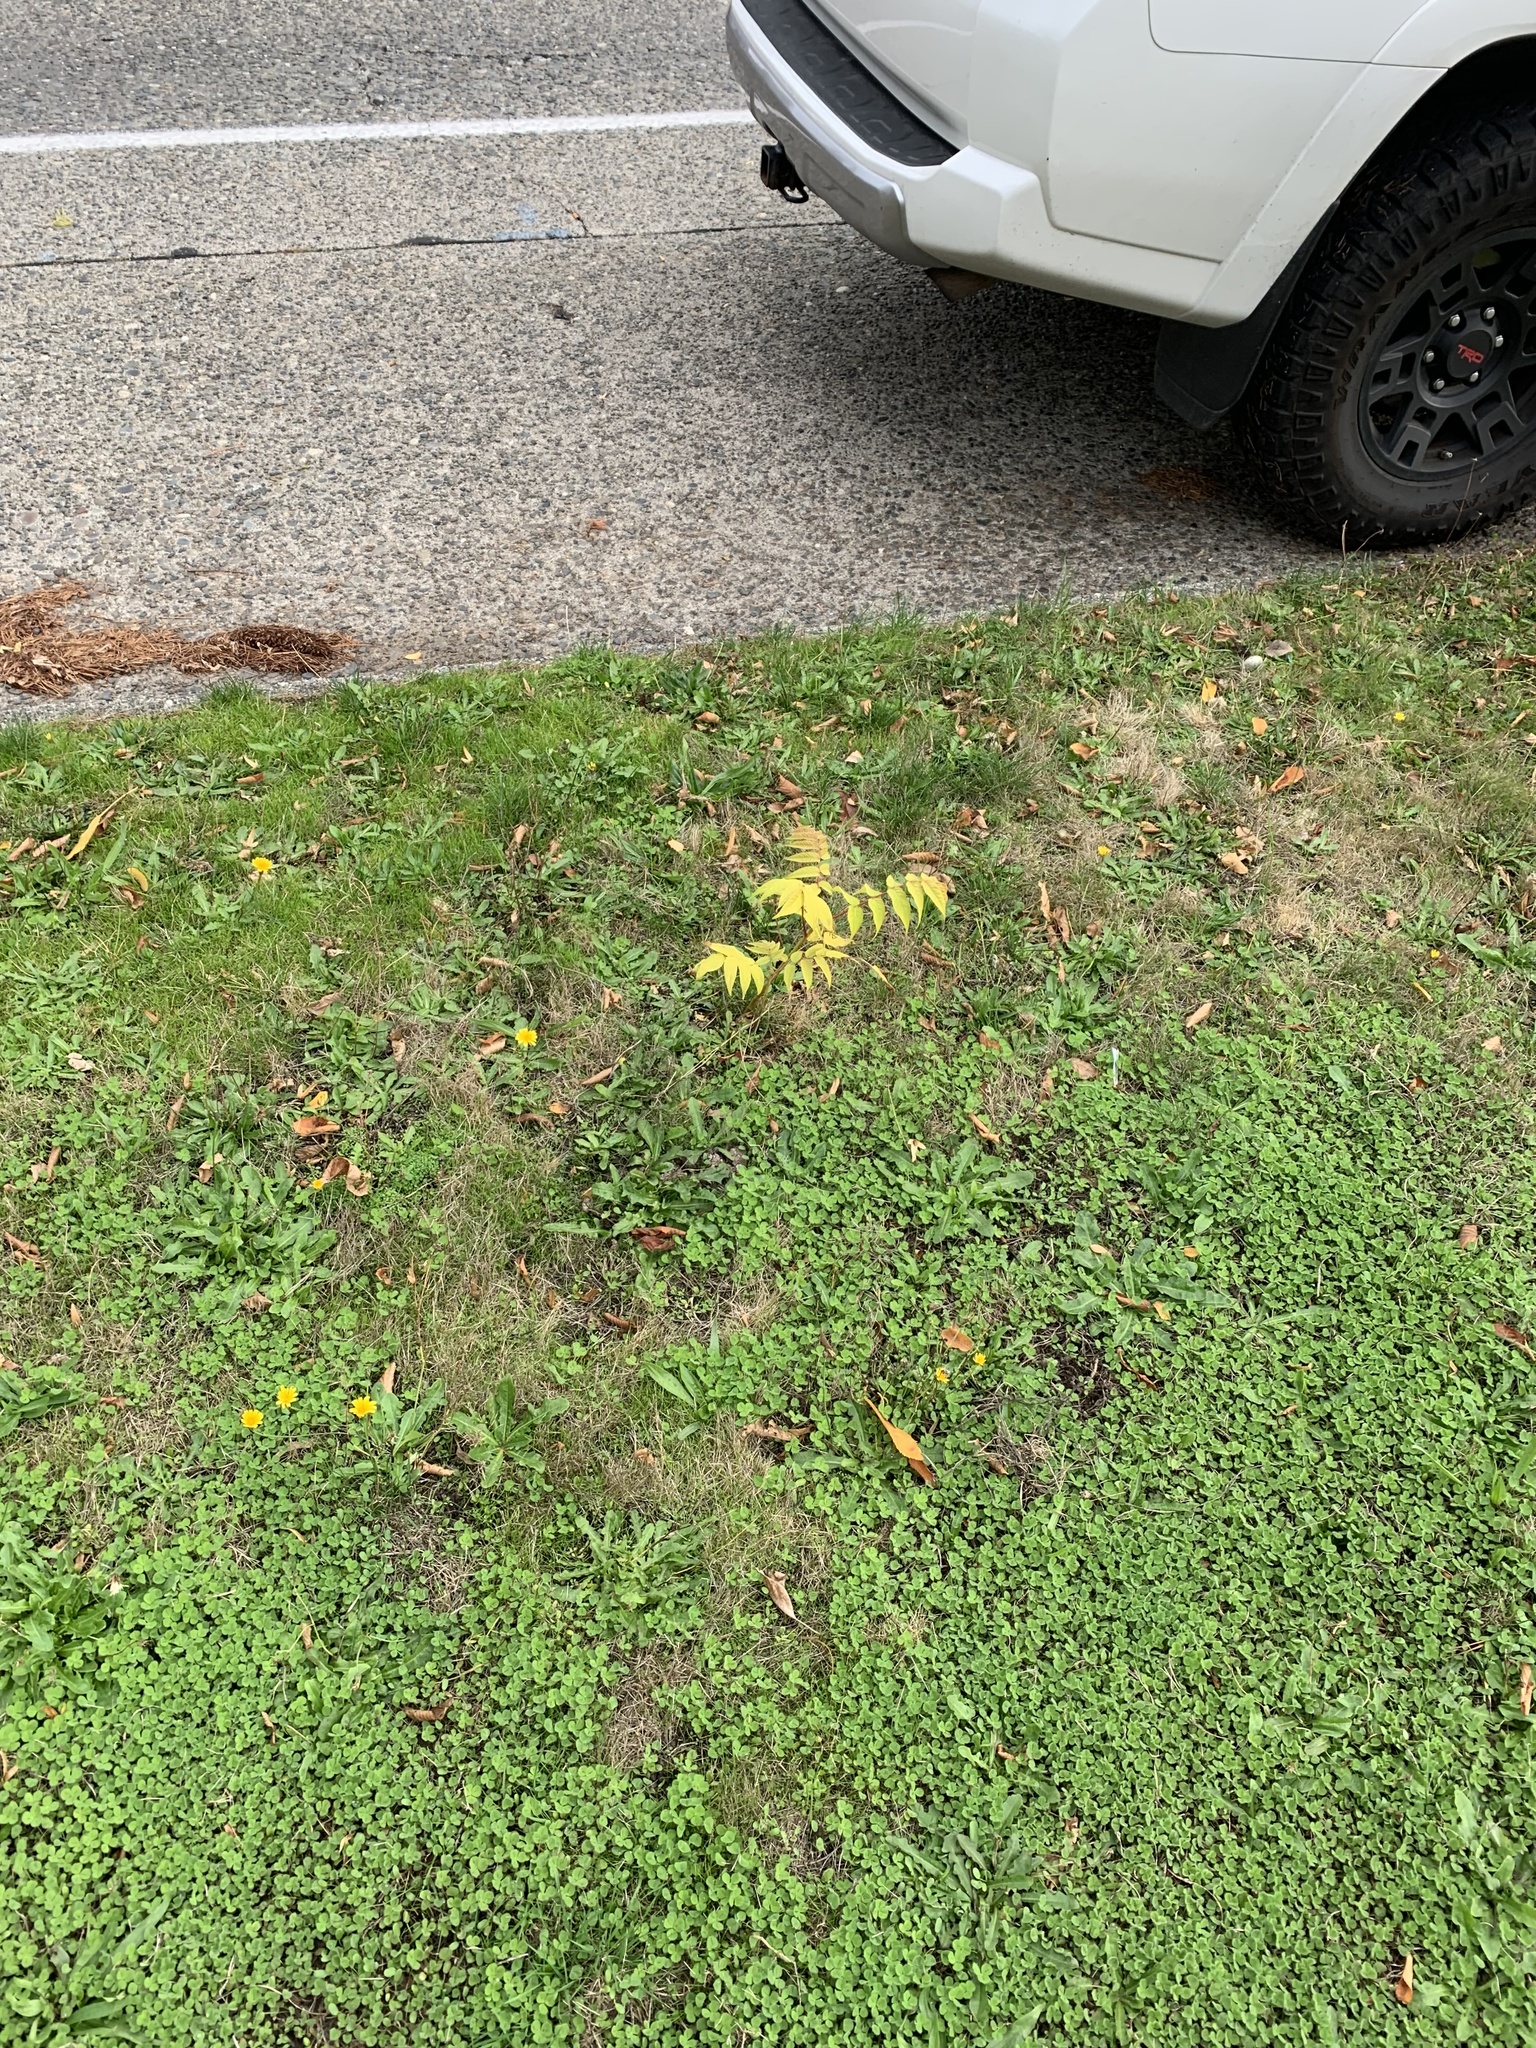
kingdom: Plantae
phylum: Tracheophyta
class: Magnoliopsida
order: Sapindales
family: Simaroubaceae
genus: Ailanthus
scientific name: Ailanthus altissima
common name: Tree-of-heaven
